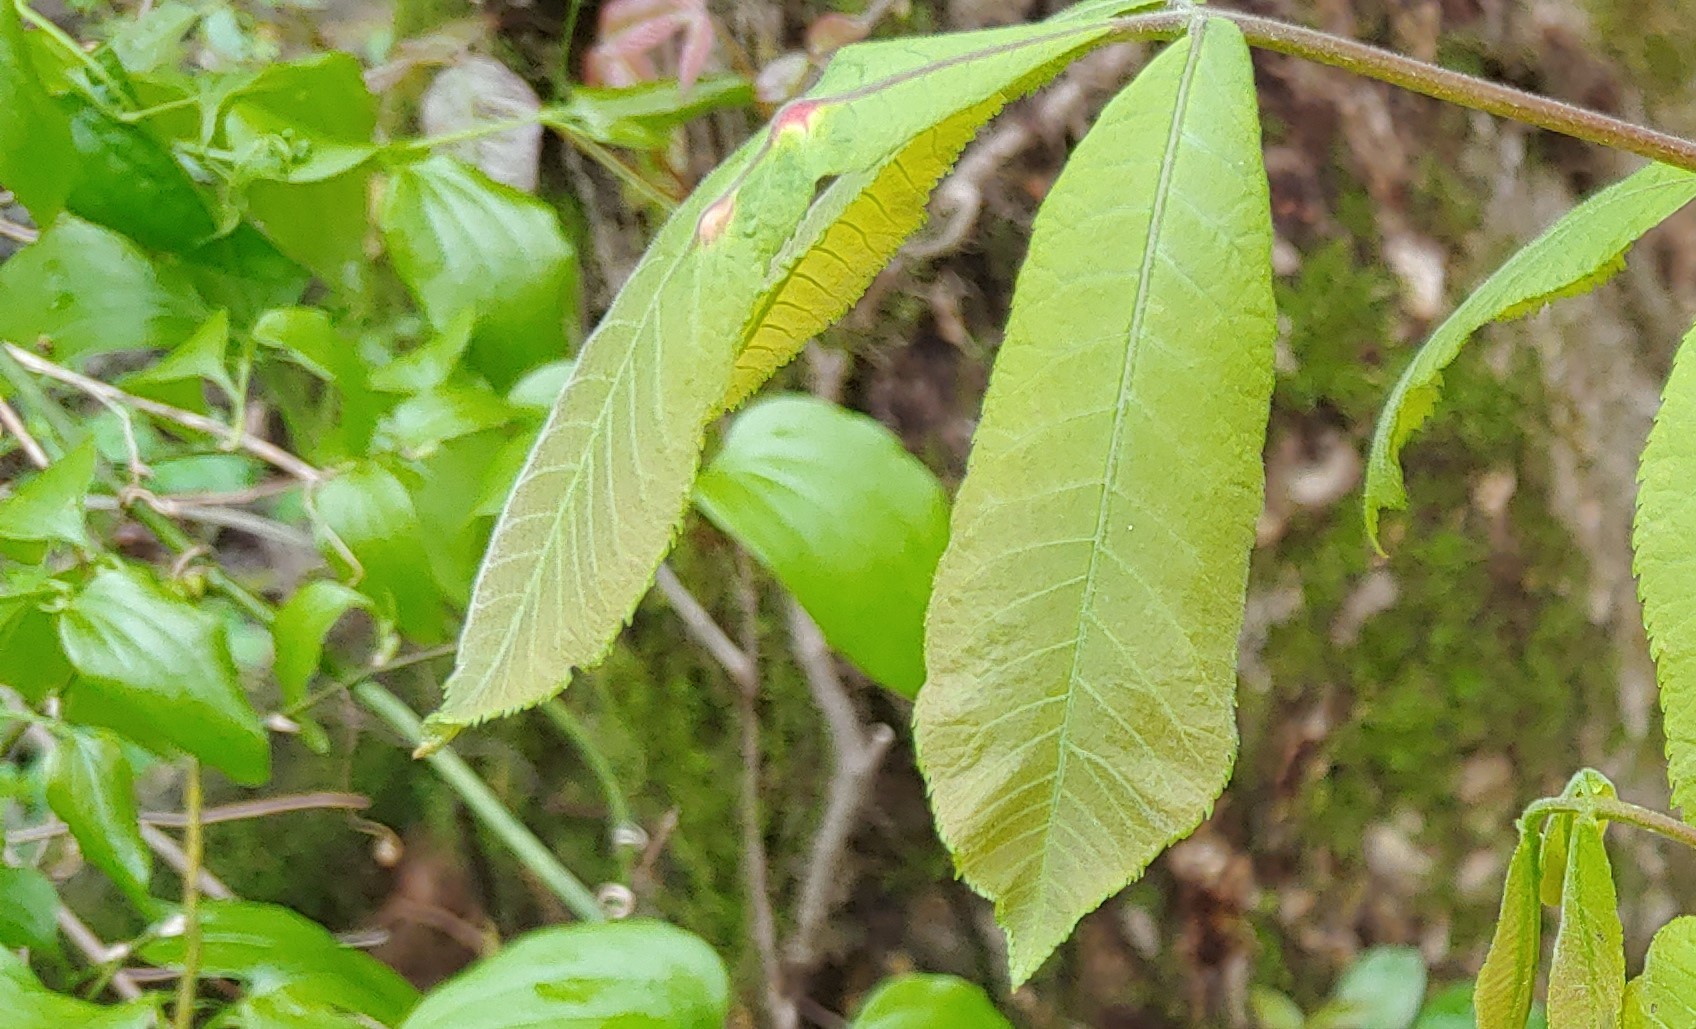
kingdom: Animalia
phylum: Arthropoda
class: Insecta
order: Hemiptera
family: Phylloxeridae
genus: Phylloxera
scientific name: Phylloxera
